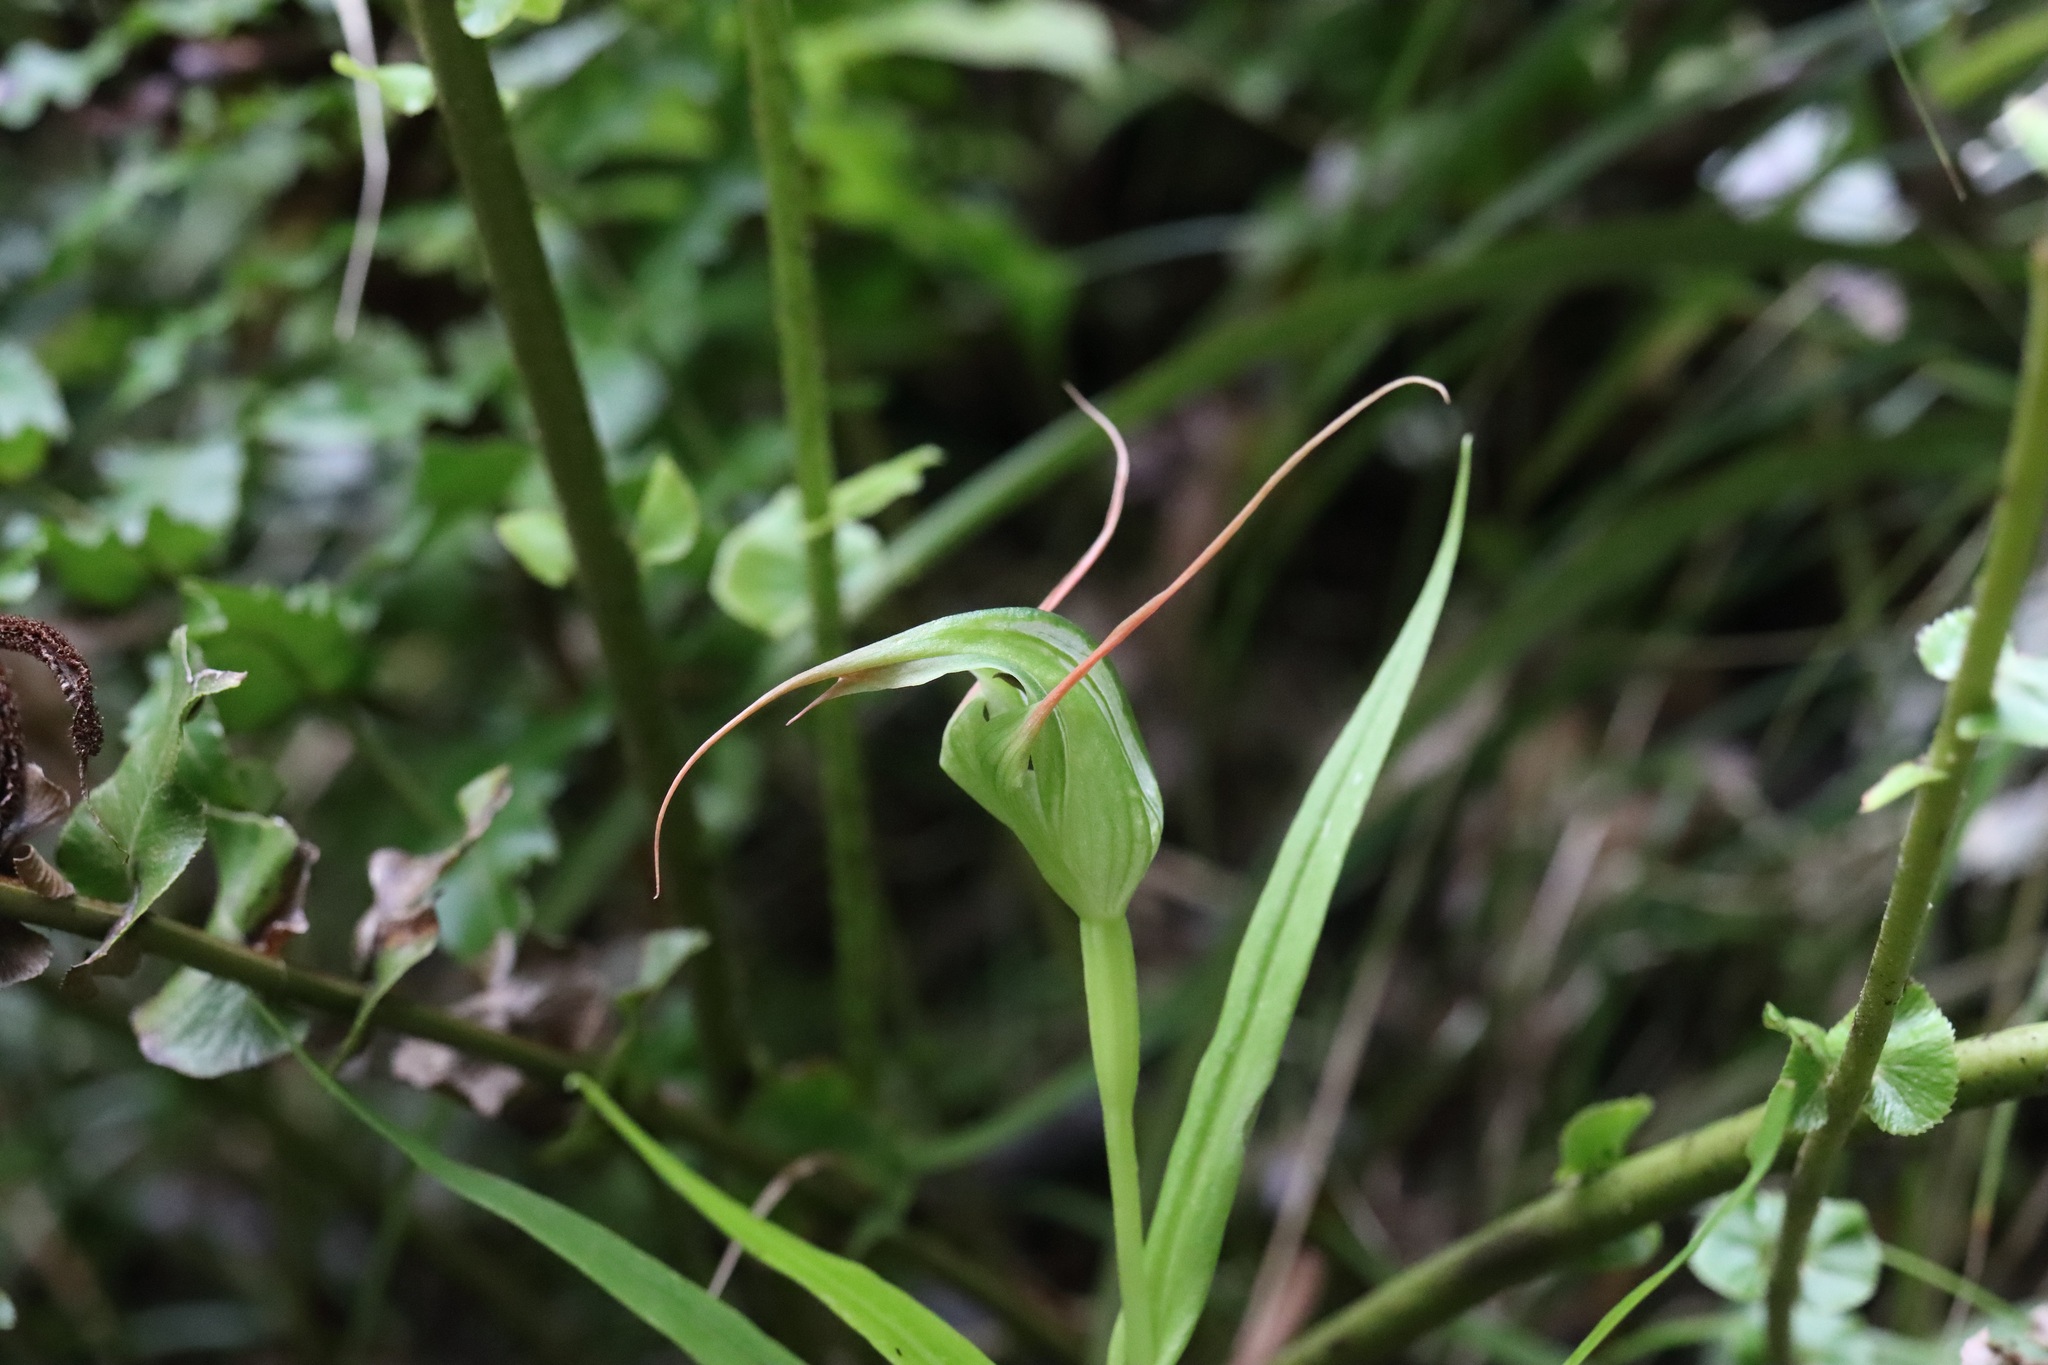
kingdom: Plantae
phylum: Tracheophyta
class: Liliopsida
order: Asparagales
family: Orchidaceae
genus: Pterostylis
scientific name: Pterostylis banksii
